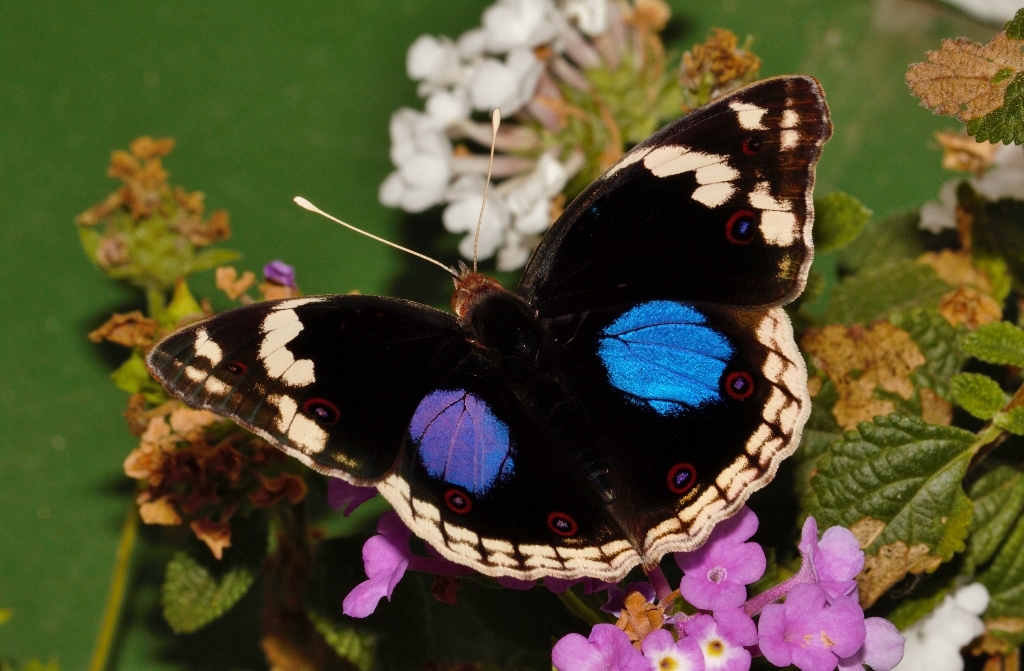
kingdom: Animalia
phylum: Arthropoda
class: Insecta
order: Lepidoptera
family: Nymphalidae
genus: Junonia
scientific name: Junonia oenone
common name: Dark blue pansy
